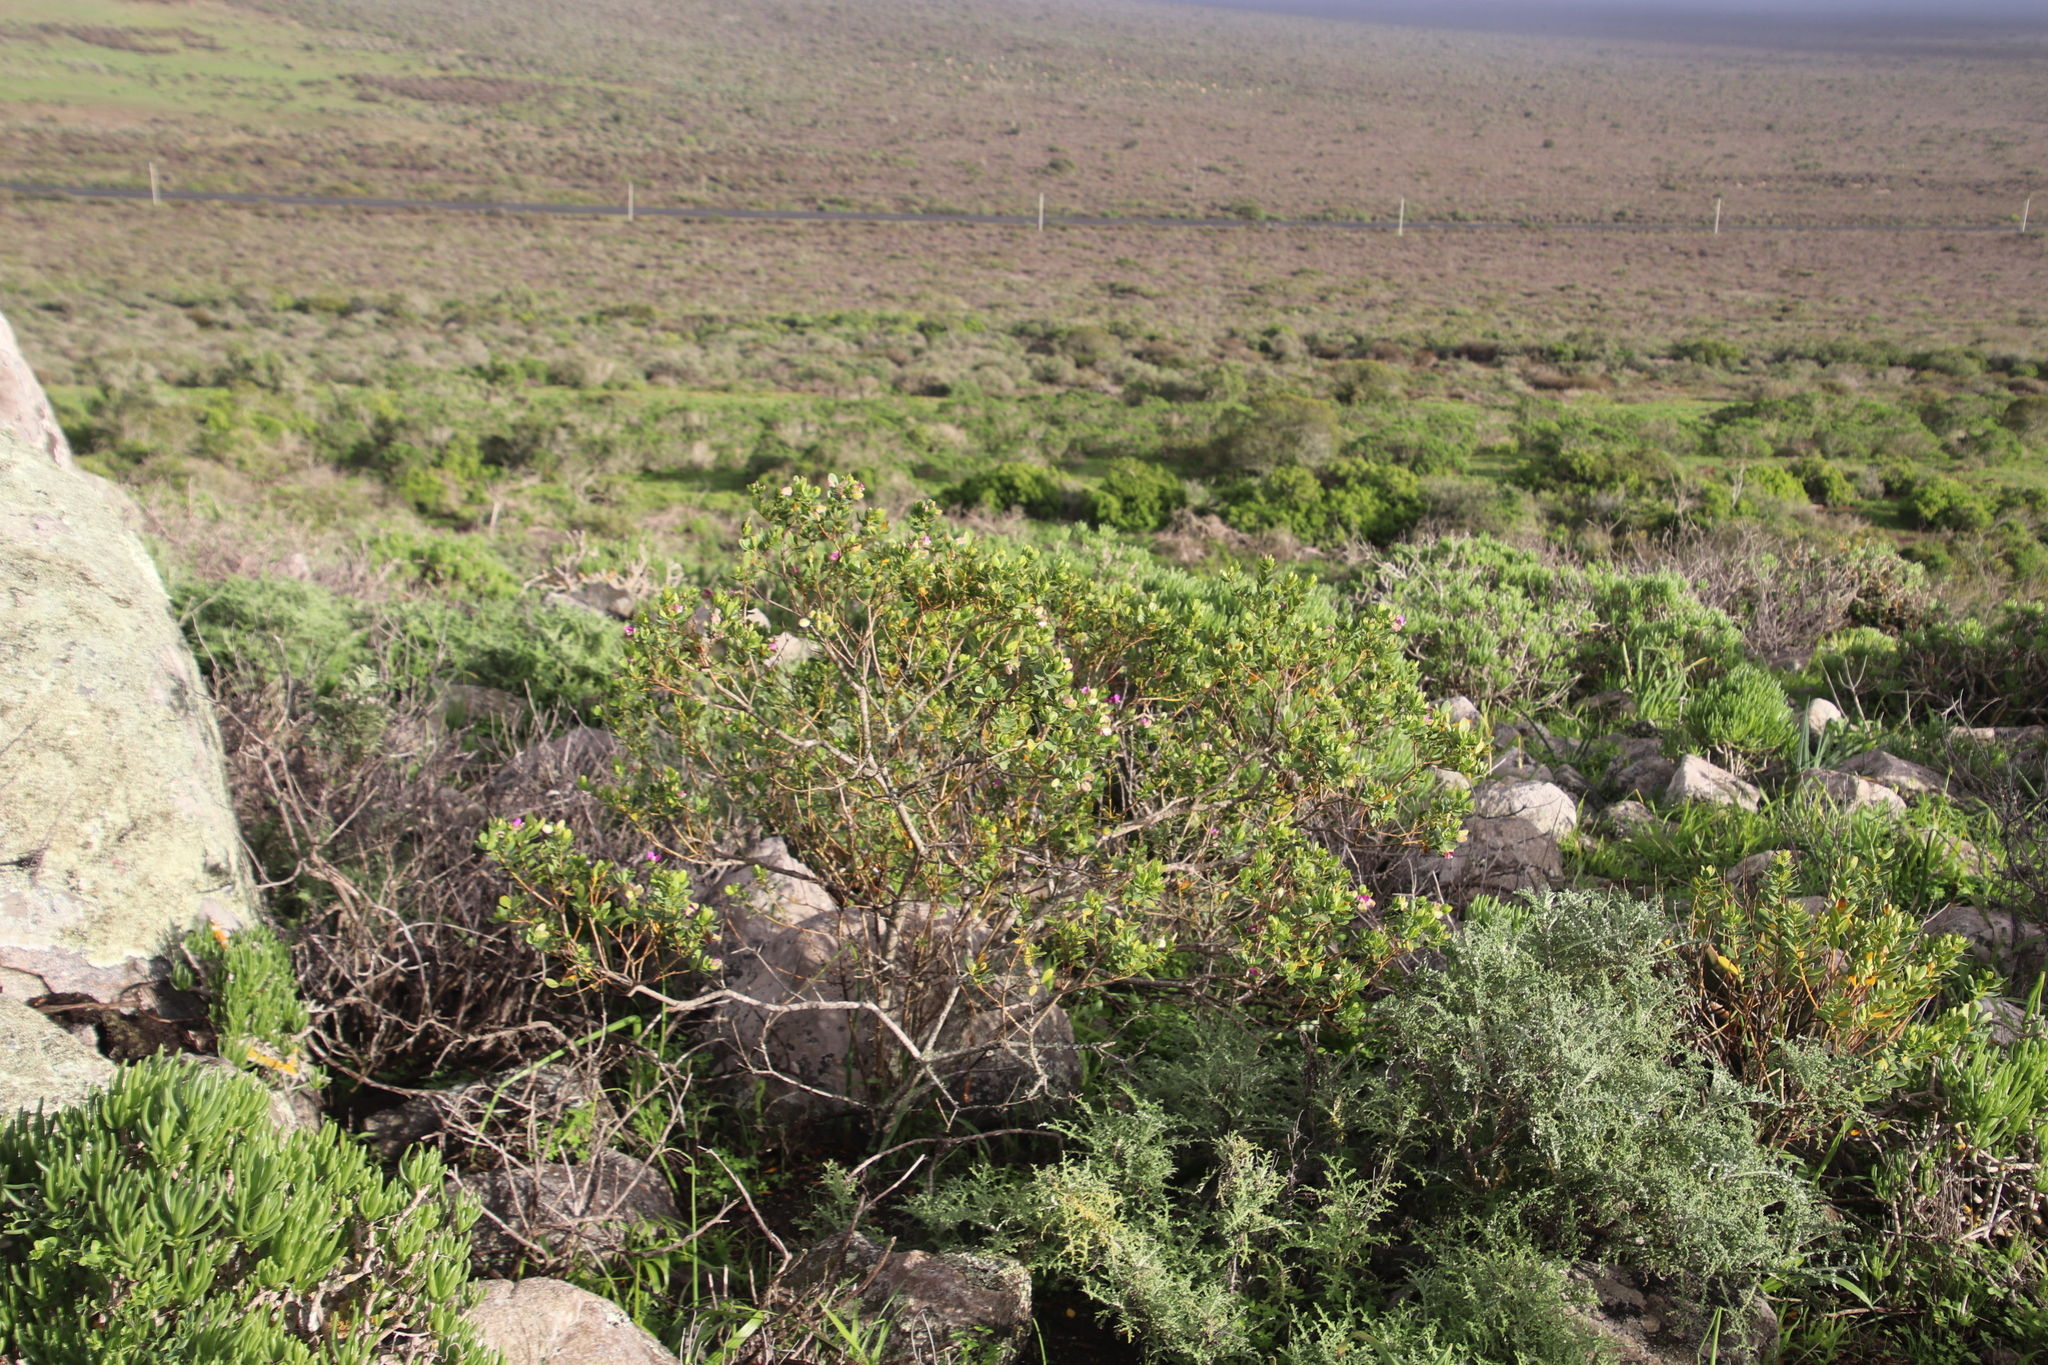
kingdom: Plantae
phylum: Tracheophyta
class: Magnoliopsida
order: Fabales
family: Polygalaceae
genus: Polygala
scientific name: Polygala myrtifolia
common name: Myrtle-leaf milkwort
